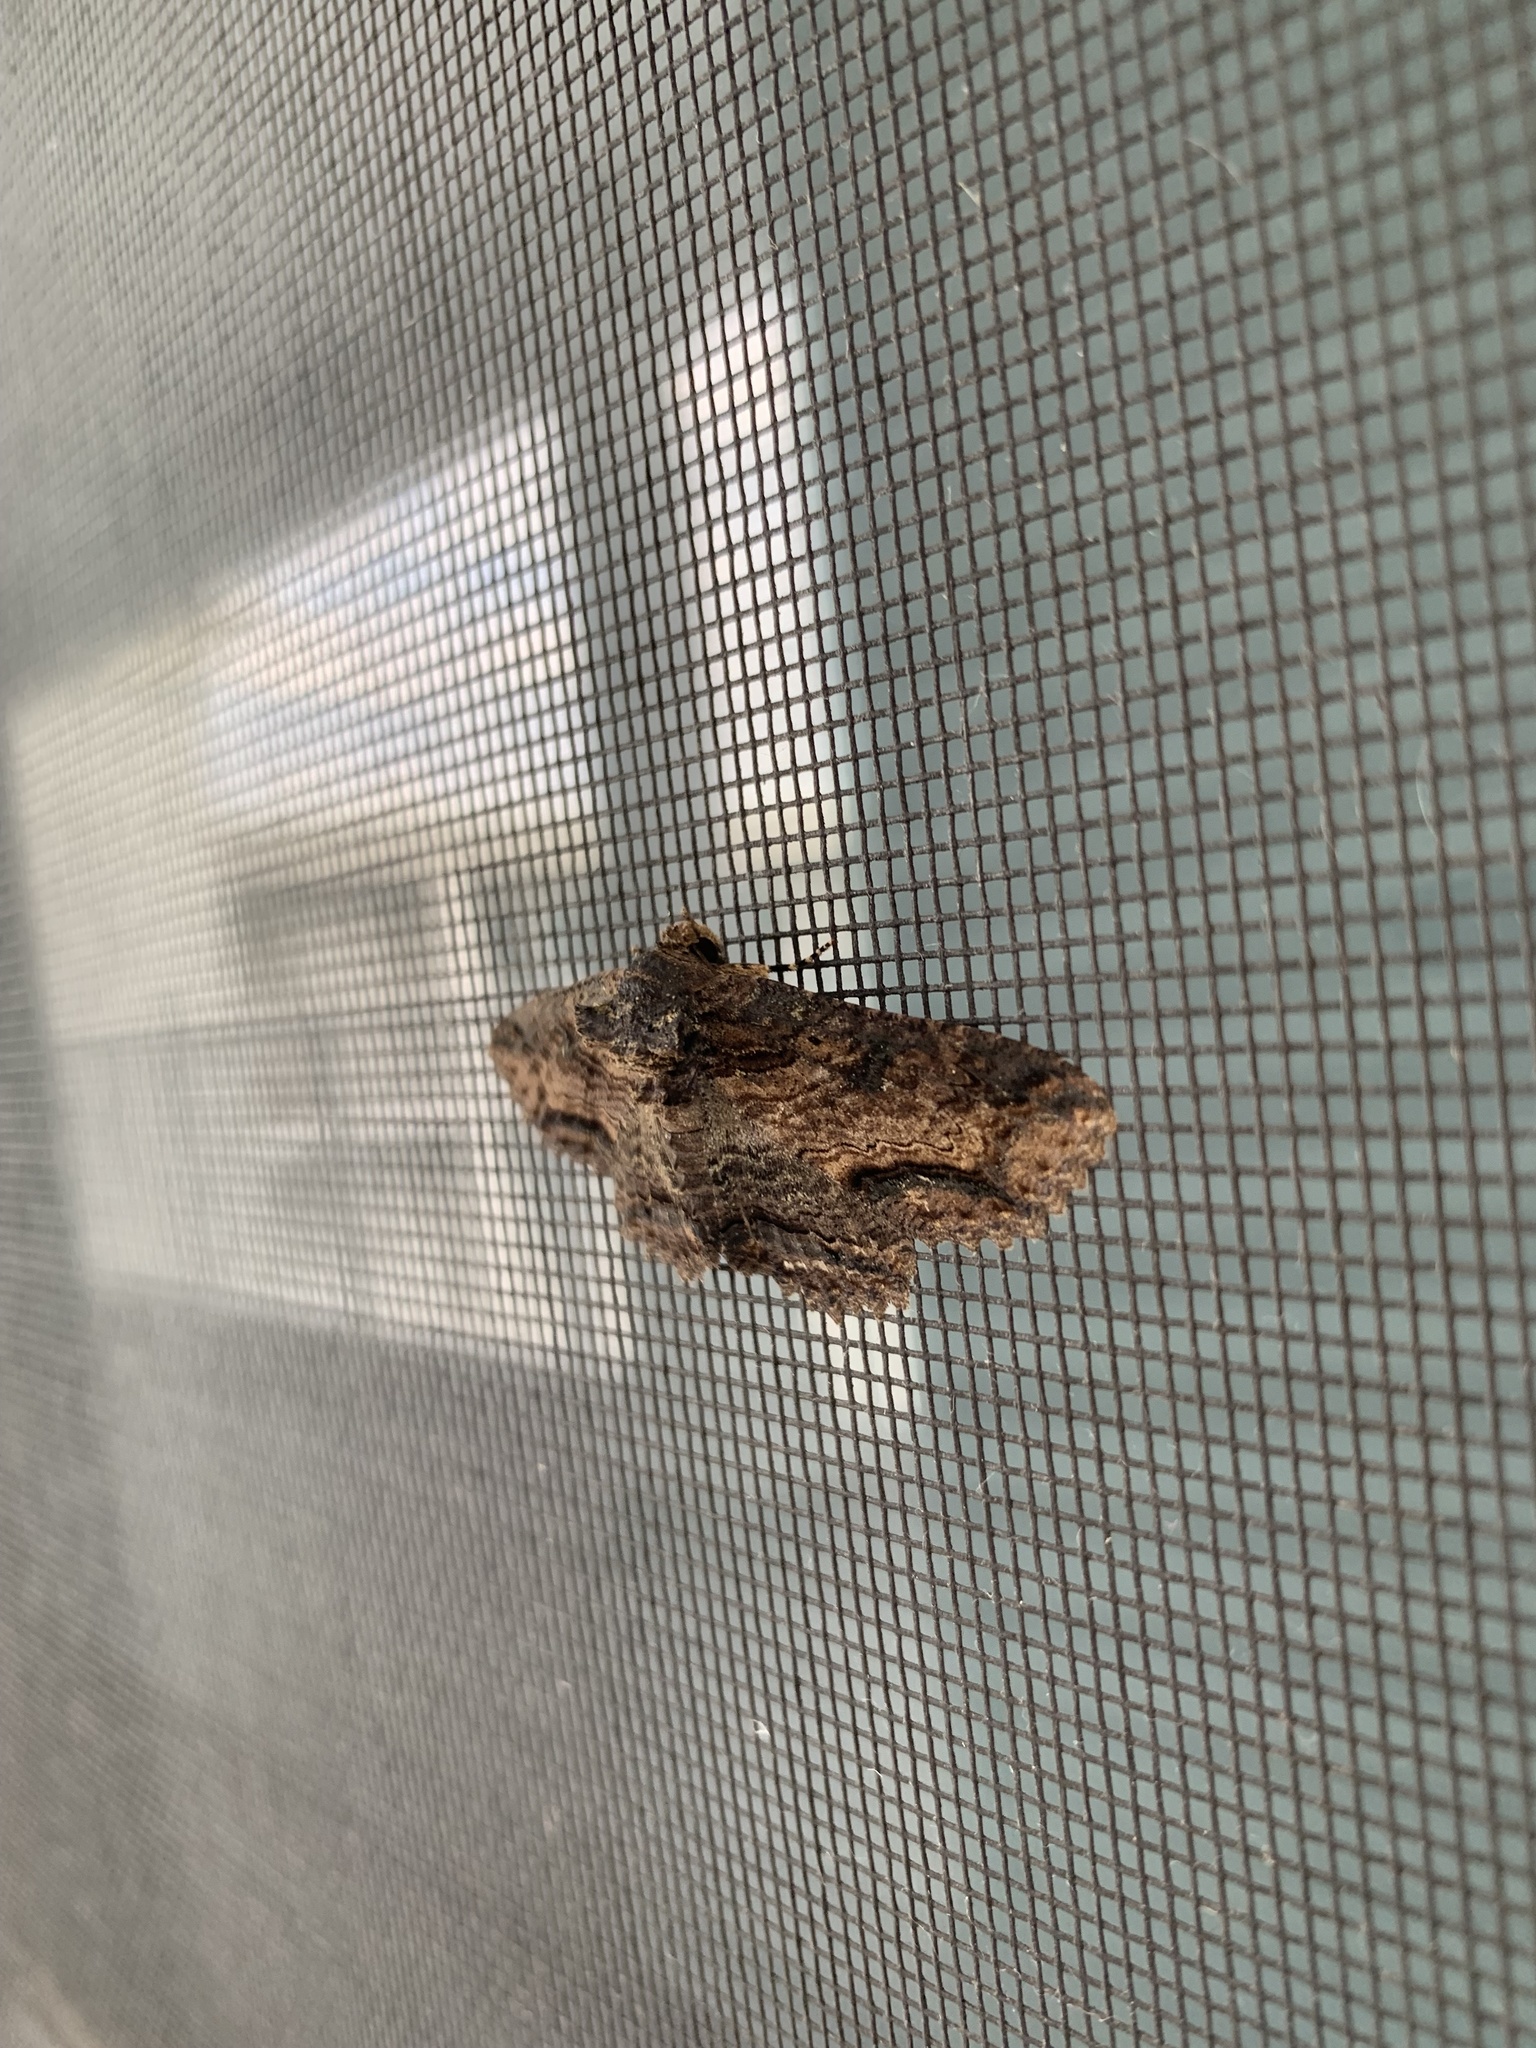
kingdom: Animalia
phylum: Arthropoda
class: Insecta
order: Lepidoptera
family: Erebidae
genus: Zale
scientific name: Zale lunata
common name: Lunate zale moth
